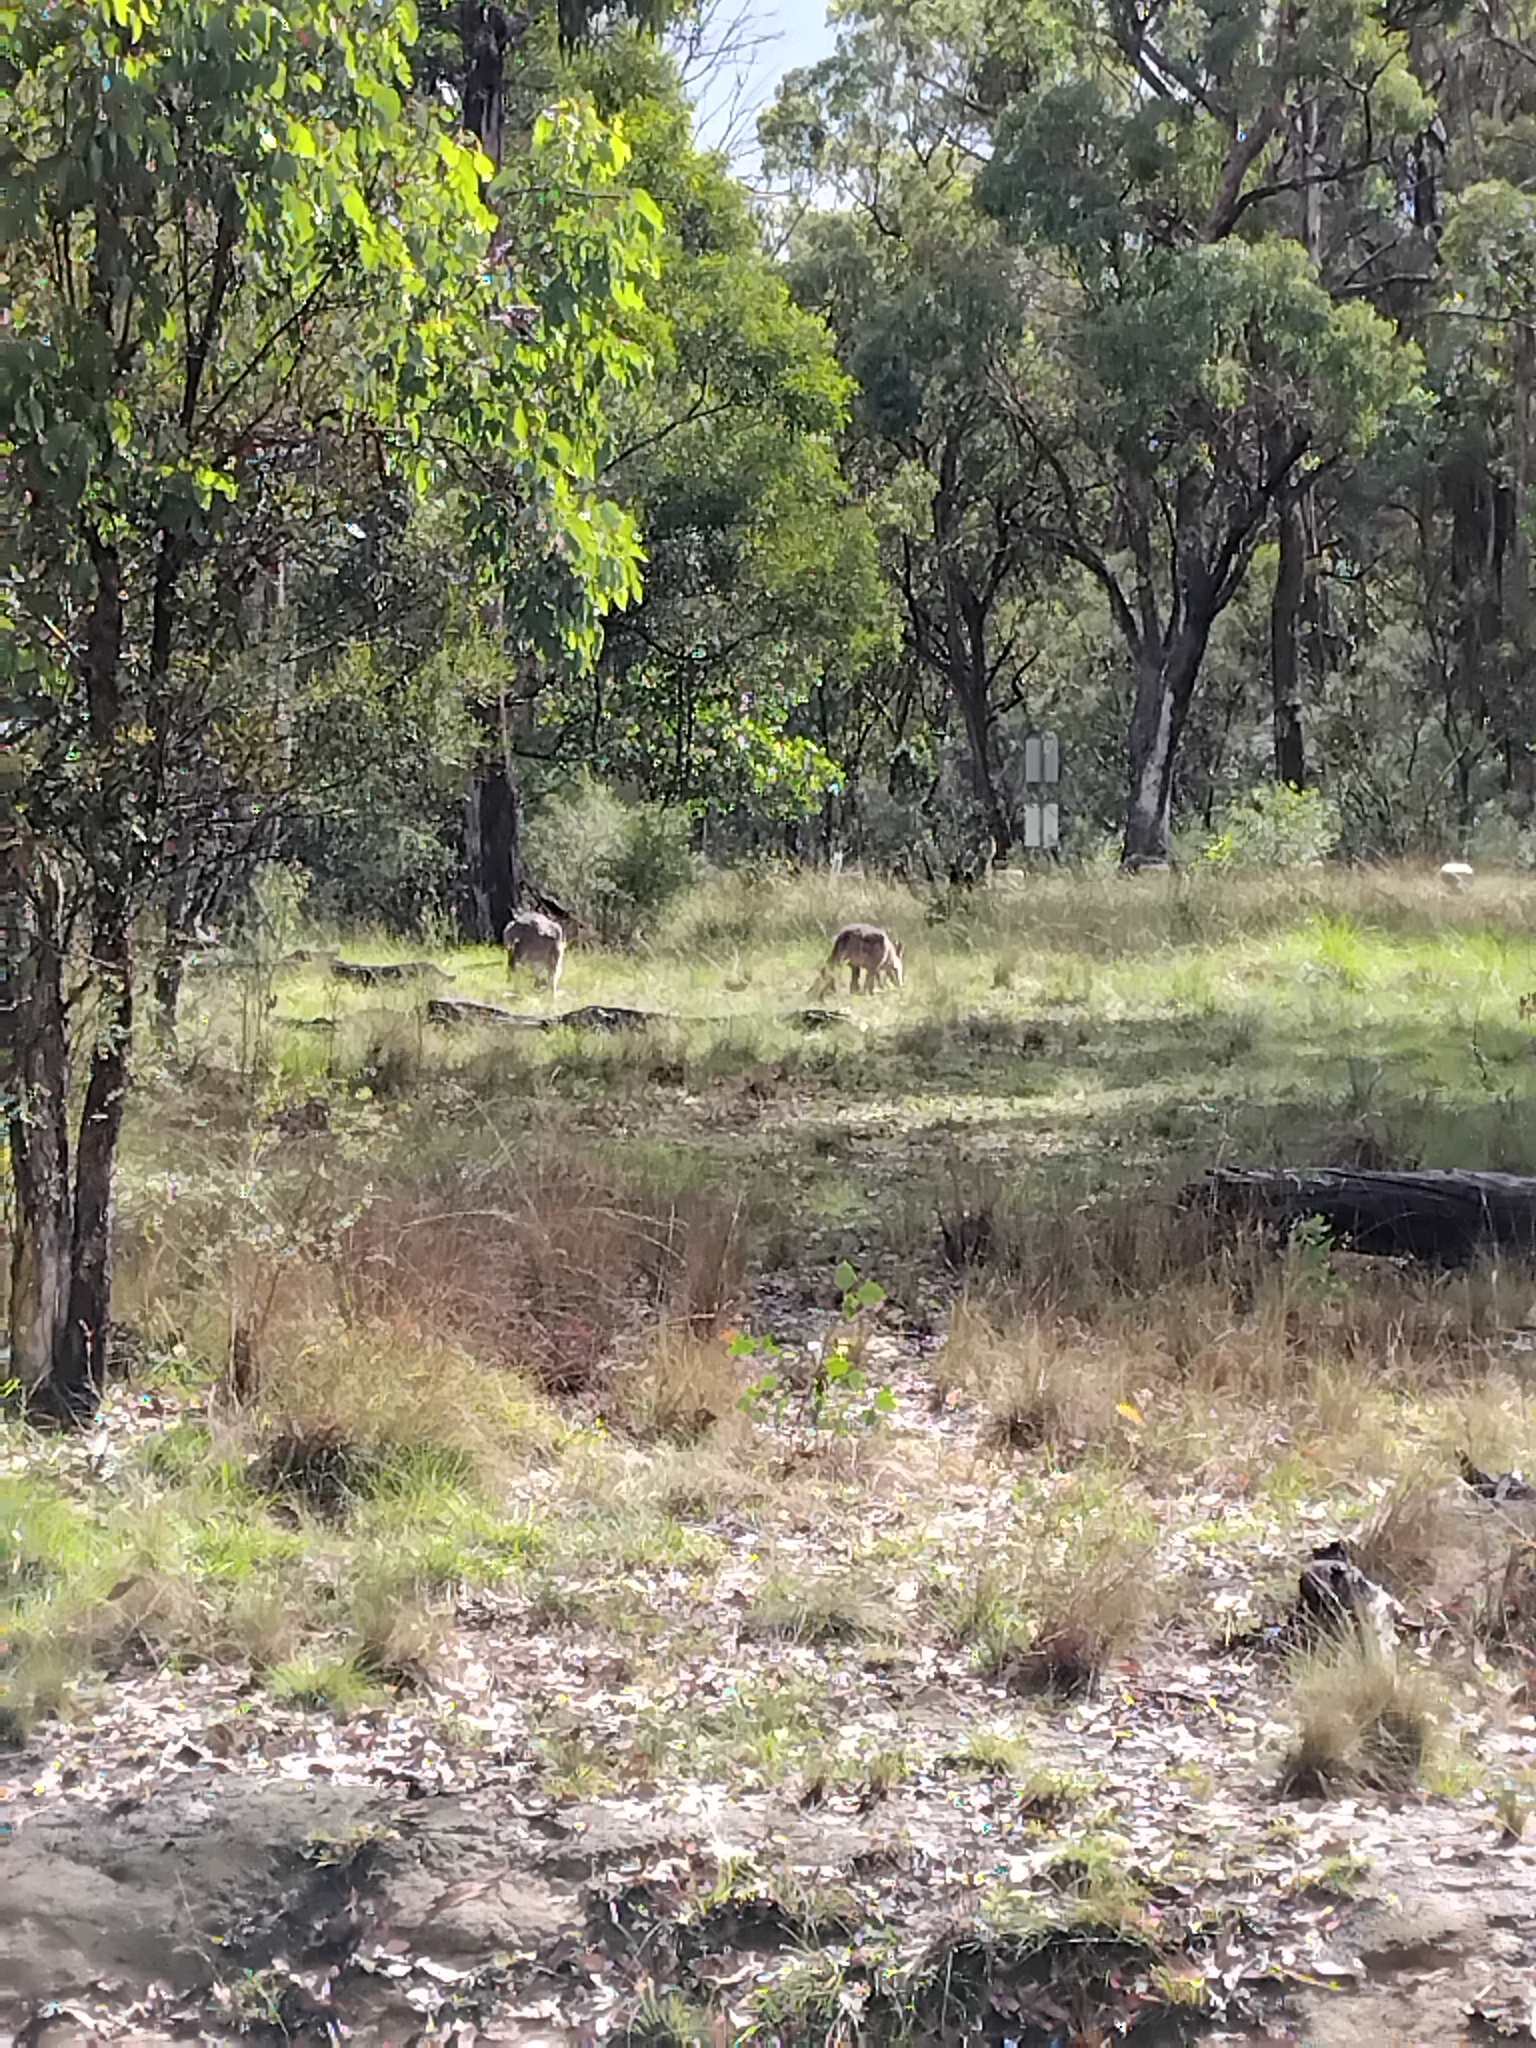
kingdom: Animalia
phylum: Chordata
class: Mammalia
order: Diprotodontia
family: Macropodidae
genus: Macropus
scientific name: Macropus giganteus
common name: Eastern grey kangaroo
